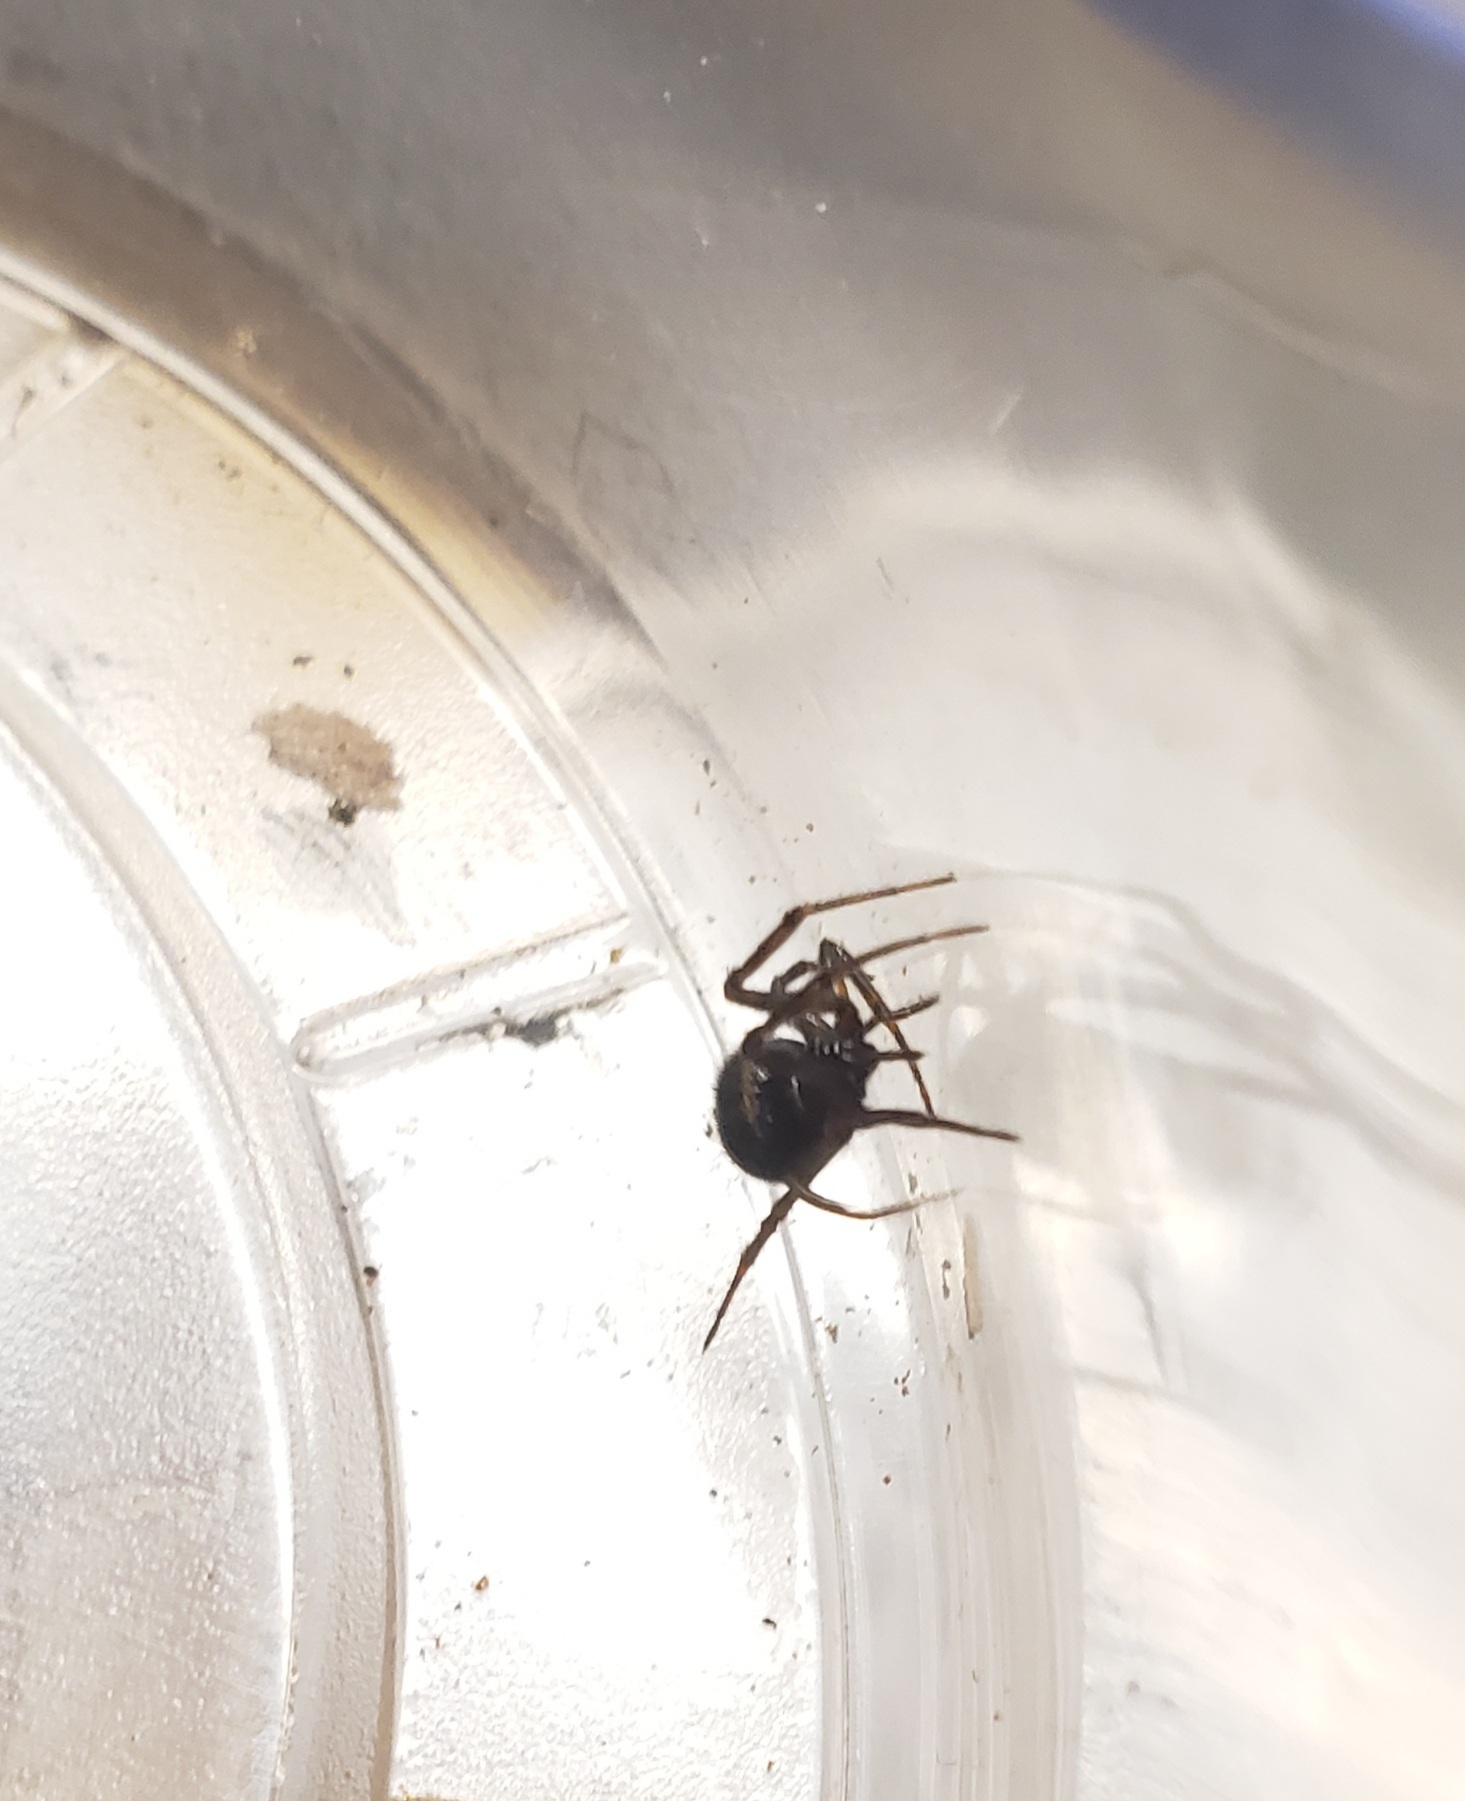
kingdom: Animalia
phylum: Arthropoda
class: Arachnida
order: Araneae
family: Theridiidae
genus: Steatoda
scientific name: Steatoda borealis
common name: Boreal combfoot
